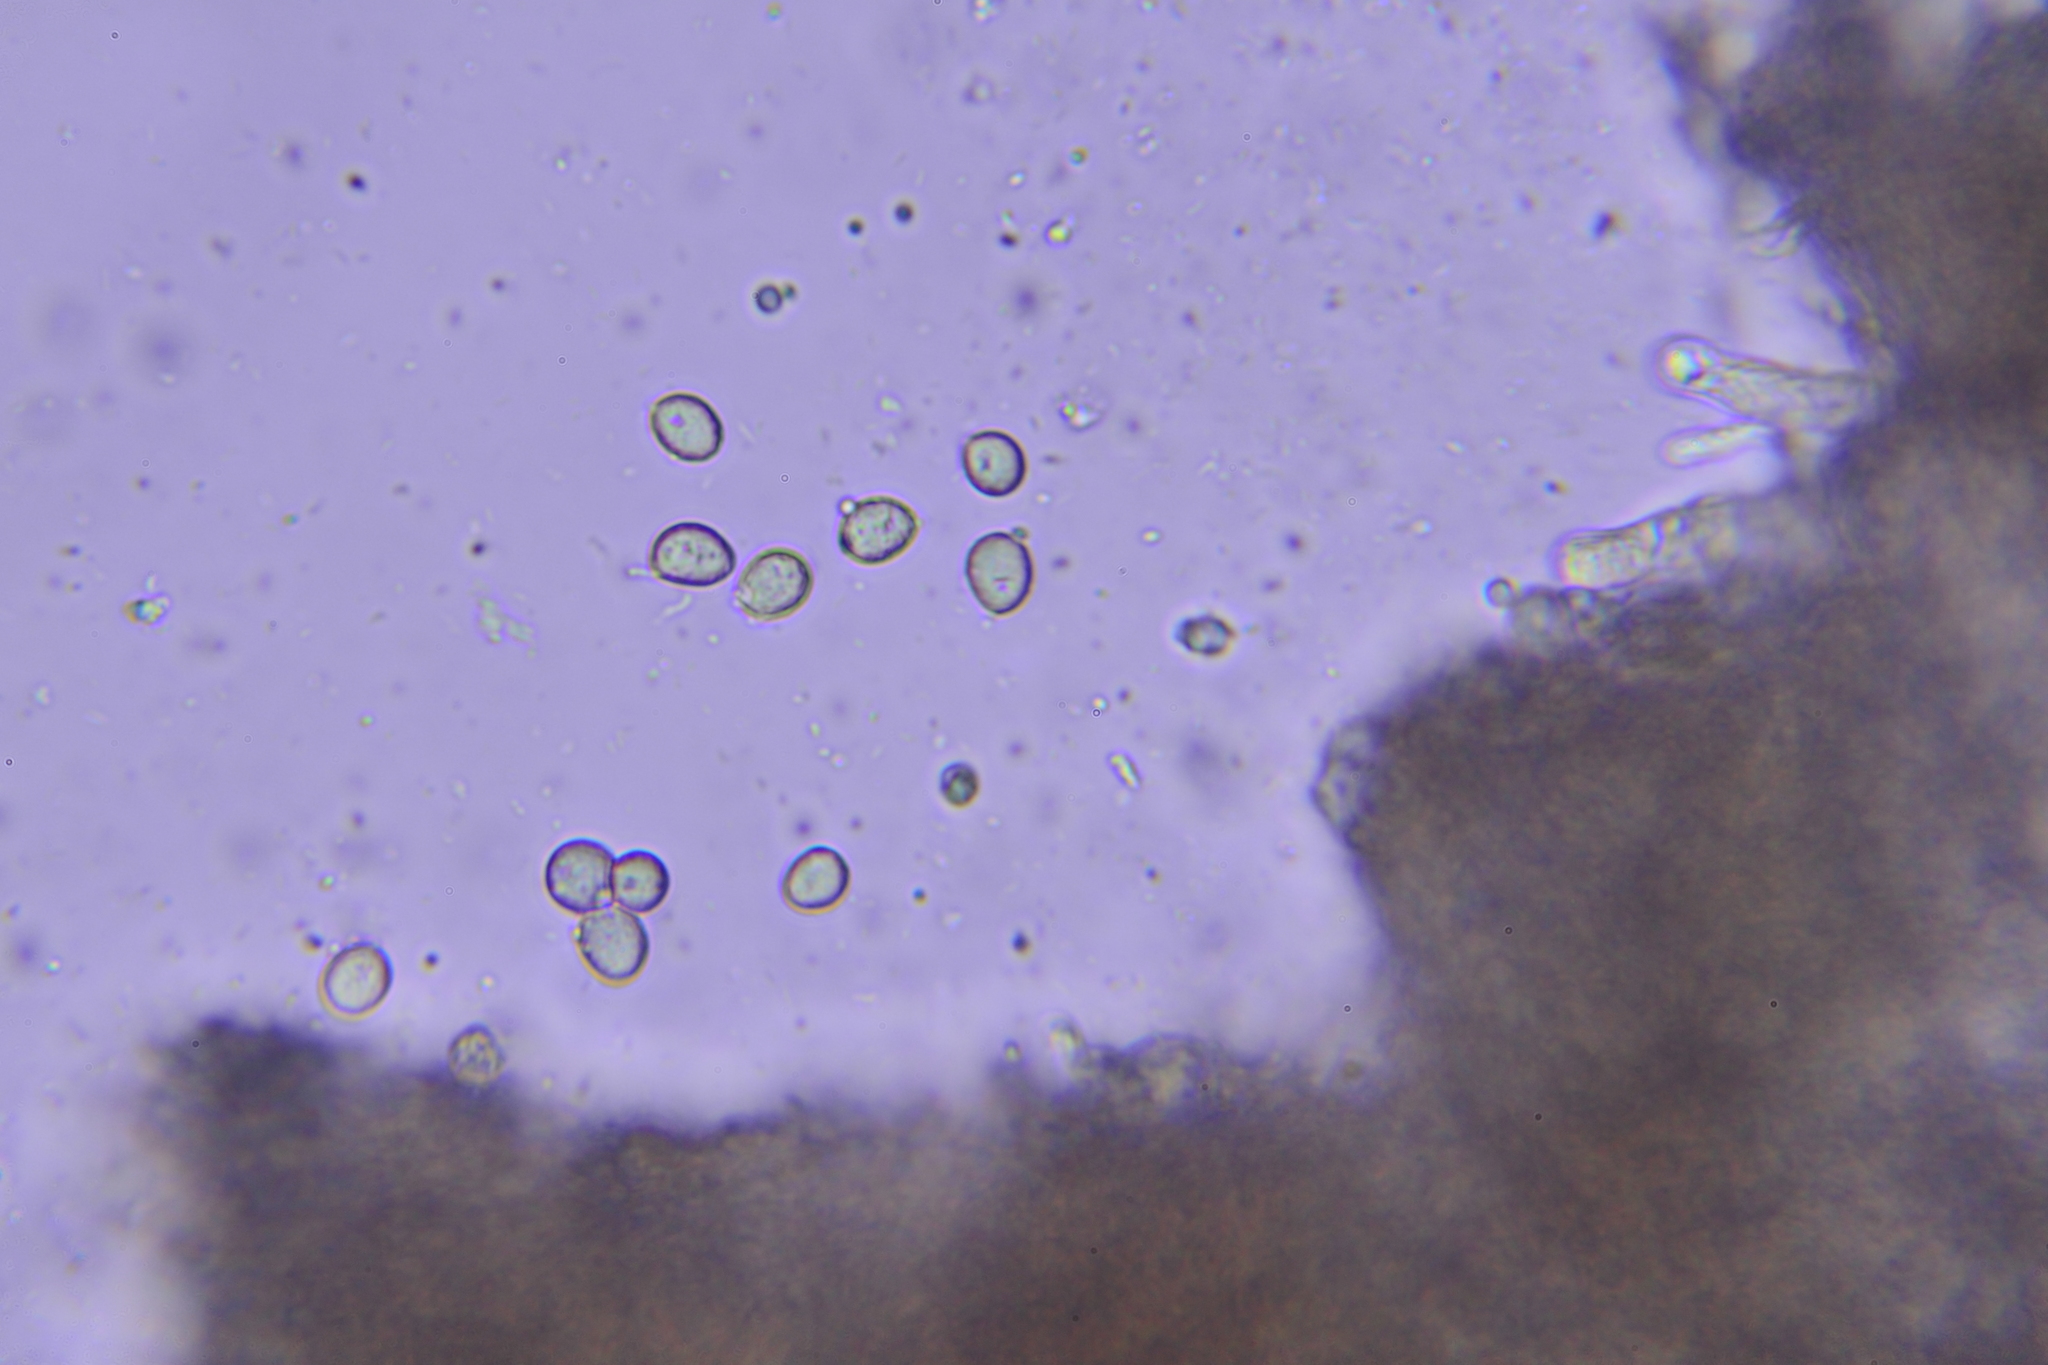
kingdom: Fungi
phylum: Basidiomycota
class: Agaricomycetes
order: Cantharellales
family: Hydnaceae
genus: Craterellus
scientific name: Craterellus tubaeformis
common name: Yellowfoot
